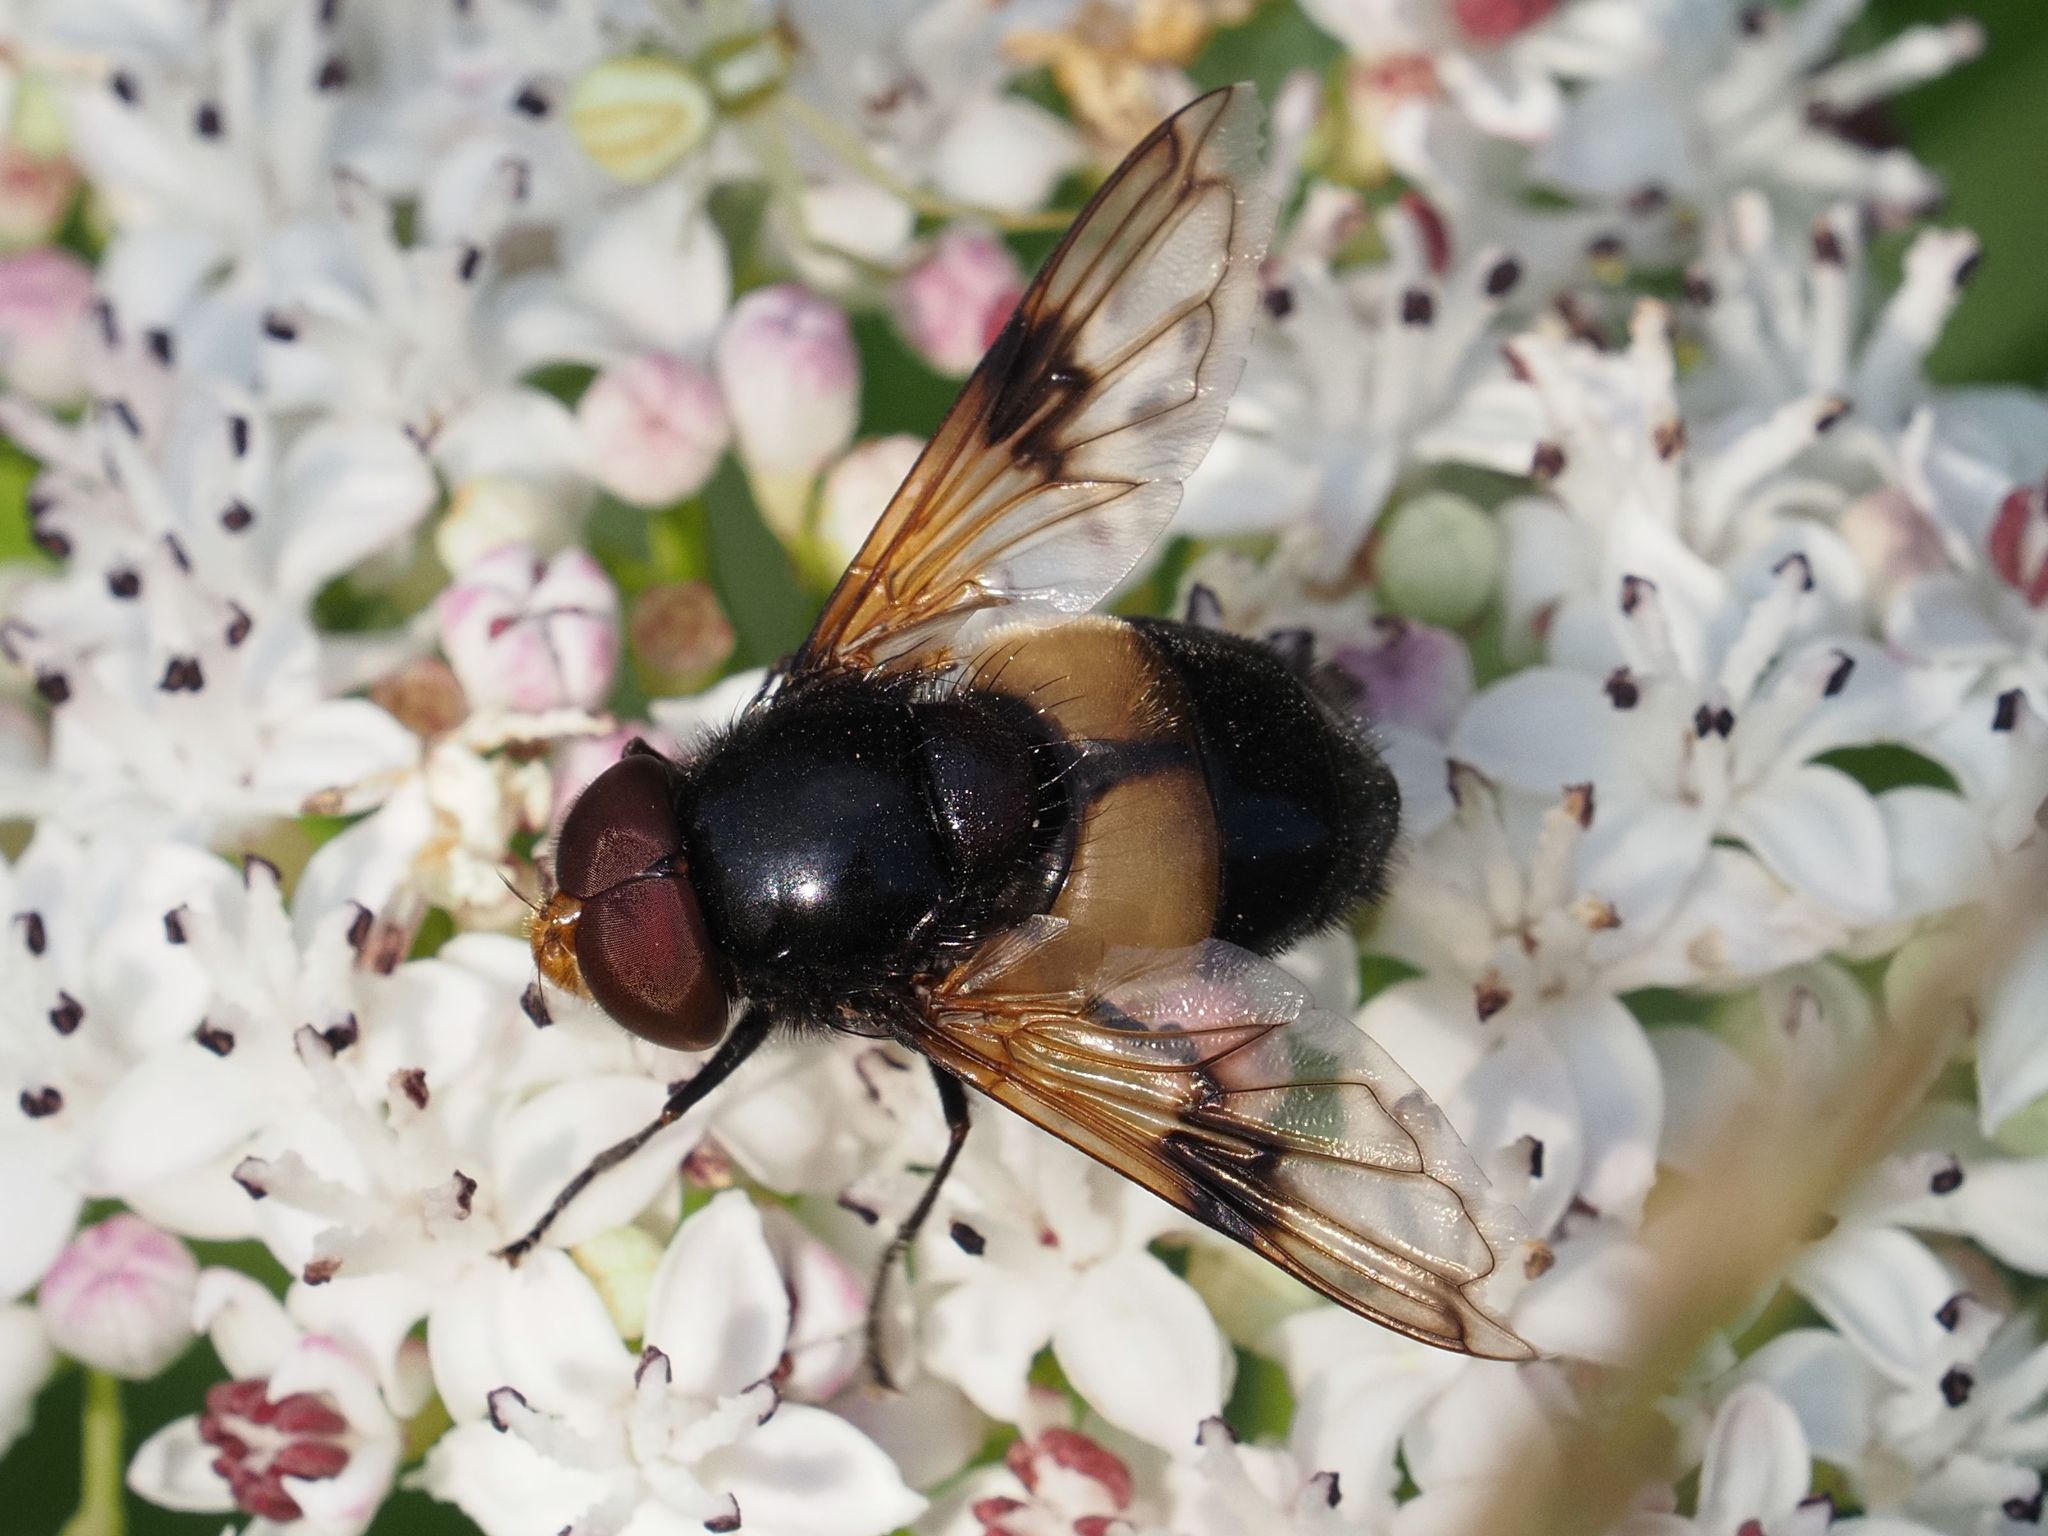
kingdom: Animalia
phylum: Arthropoda
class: Insecta
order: Diptera
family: Syrphidae
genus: Volucella
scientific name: Volucella pellucens
